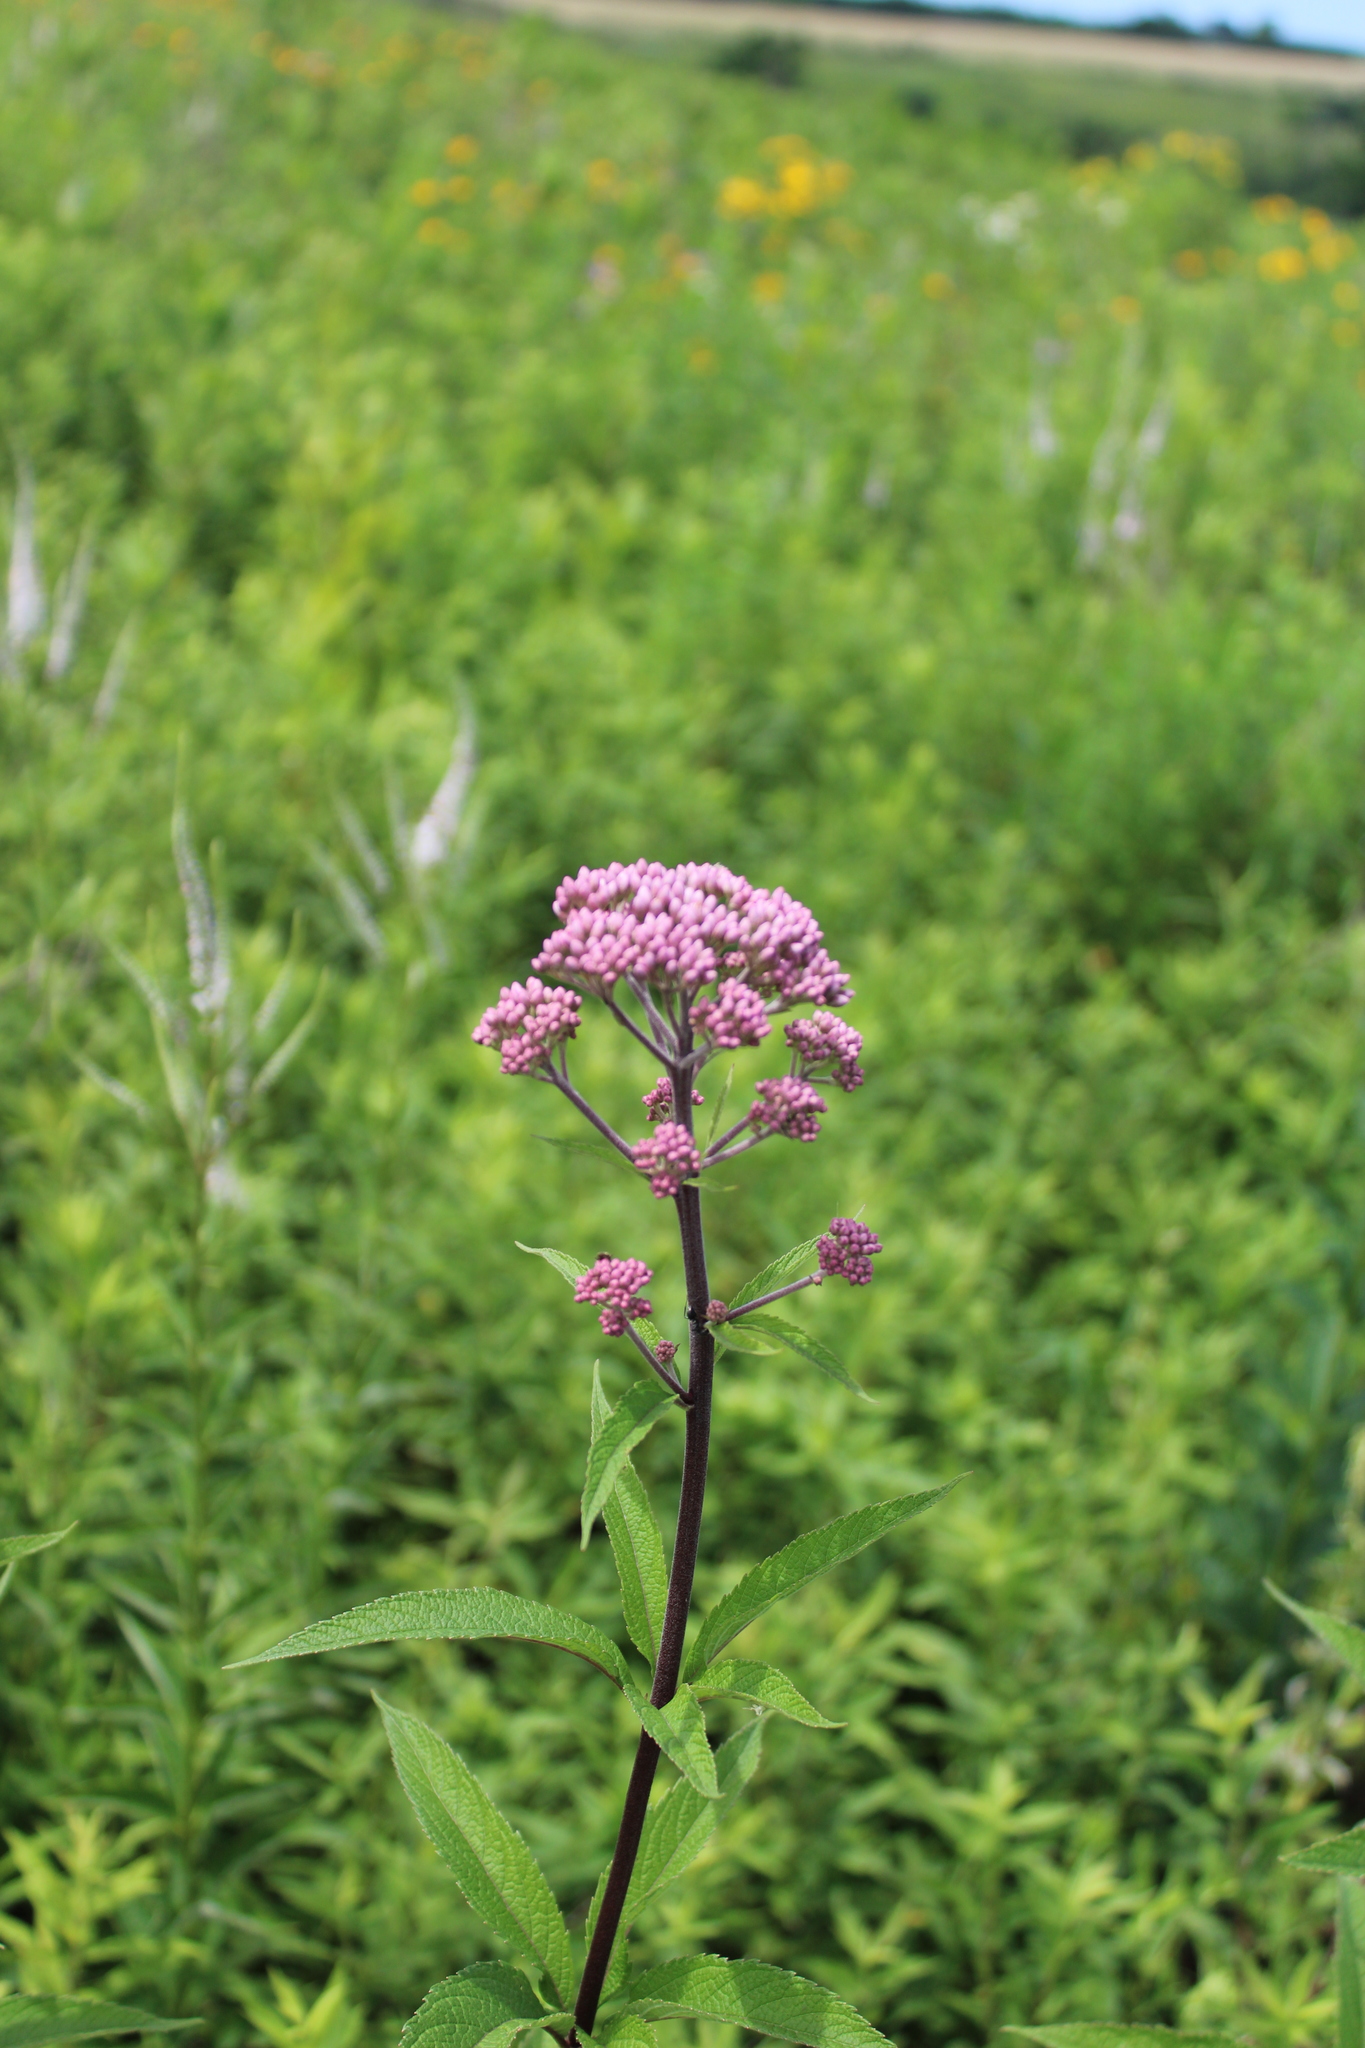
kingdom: Plantae
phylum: Tracheophyta
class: Magnoliopsida
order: Asterales
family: Asteraceae
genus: Eutrochium
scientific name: Eutrochium maculatum
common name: Spotted joe pye weed
